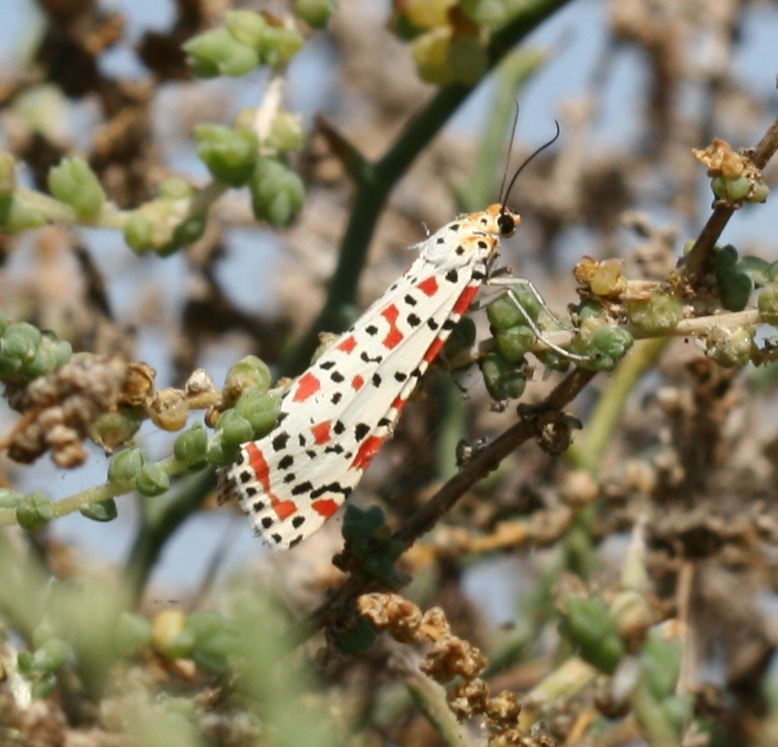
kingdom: Animalia
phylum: Arthropoda
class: Insecta
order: Lepidoptera
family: Erebidae
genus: Utetheisa
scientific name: Utetheisa pulchella
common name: Crimson speckled
